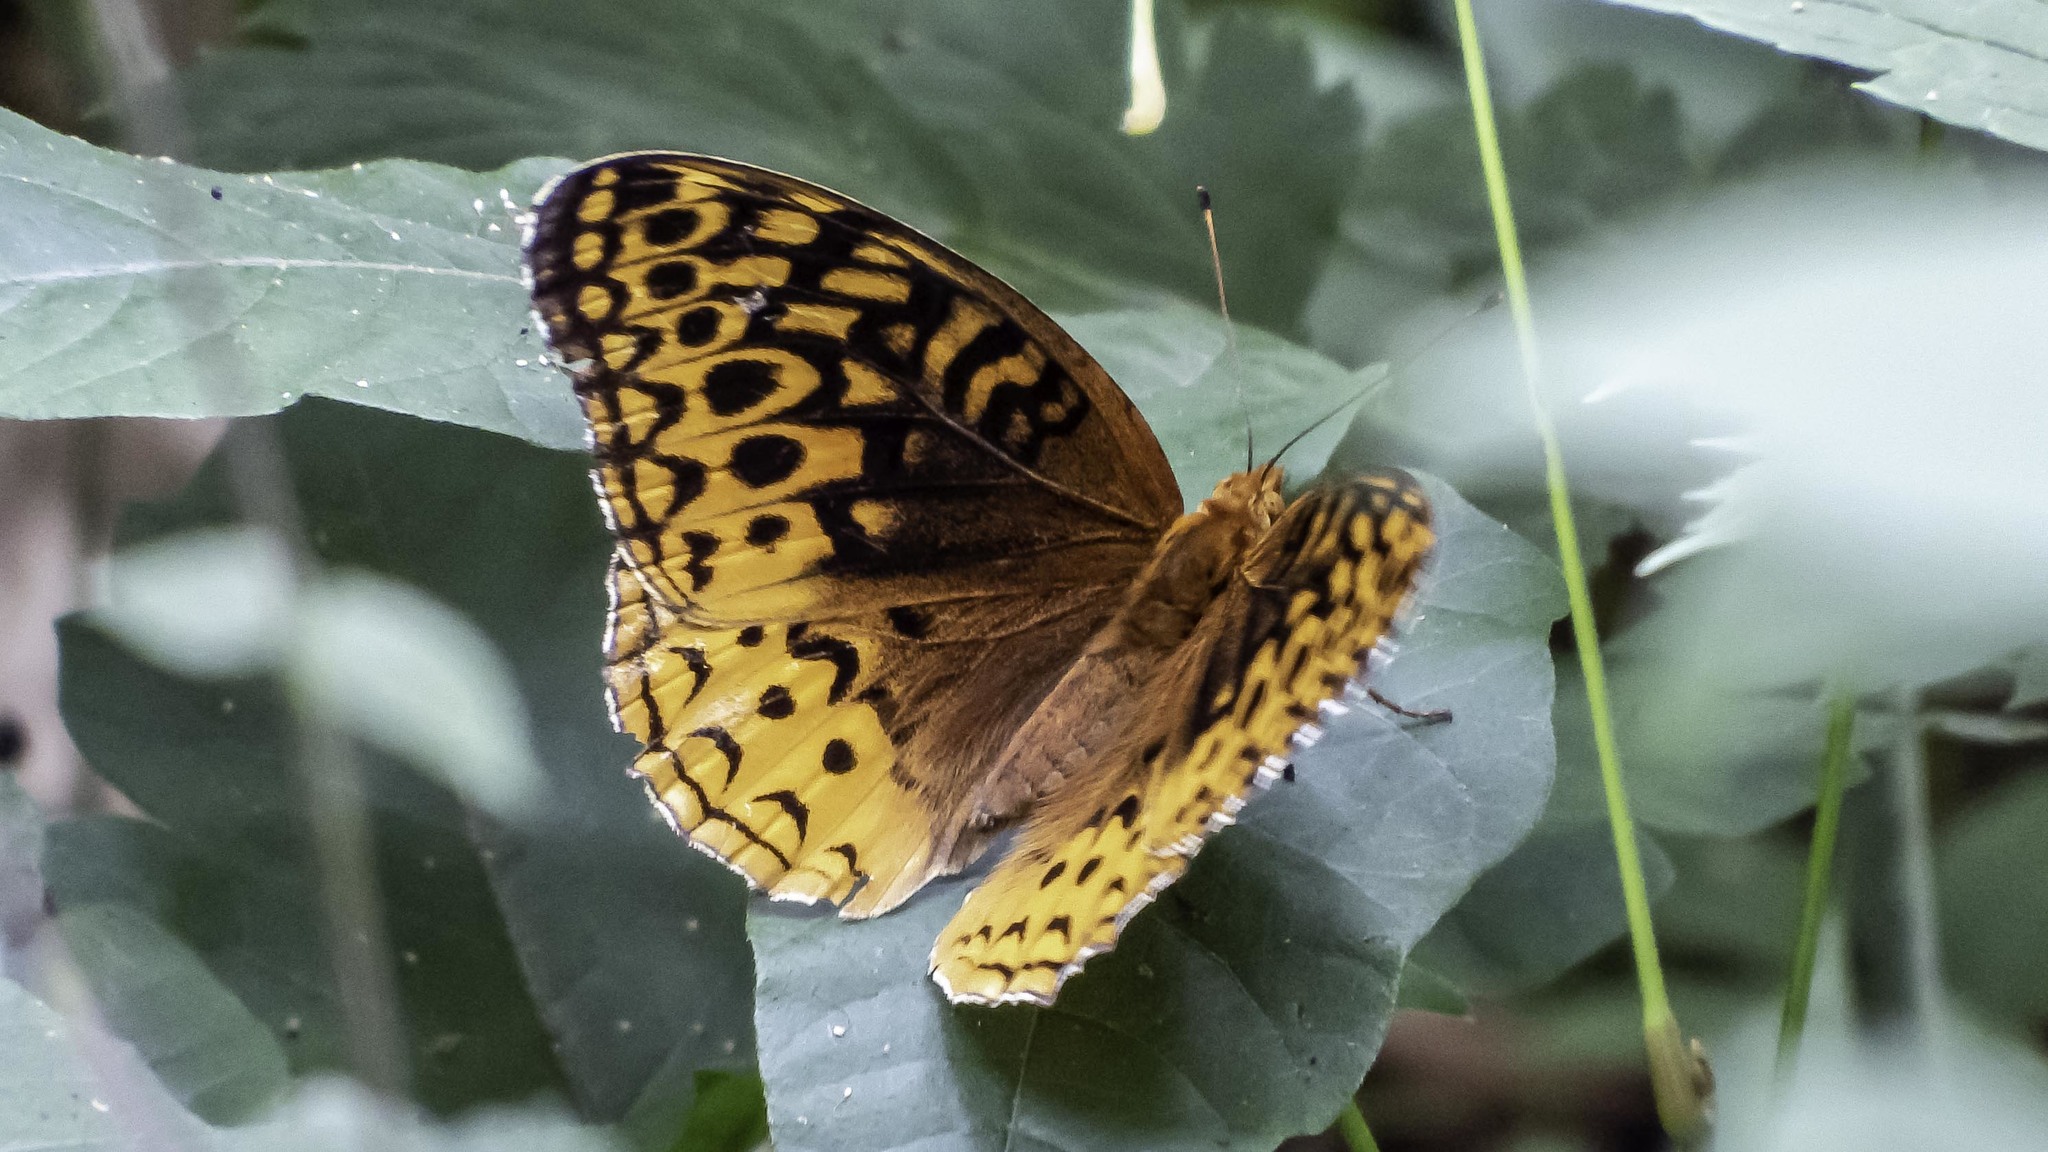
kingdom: Animalia
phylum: Arthropoda
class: Insecta
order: Lepidoptera
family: Nymphalidae
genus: Speyeria
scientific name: Speyeria cybele
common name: Great spangled fritillary
